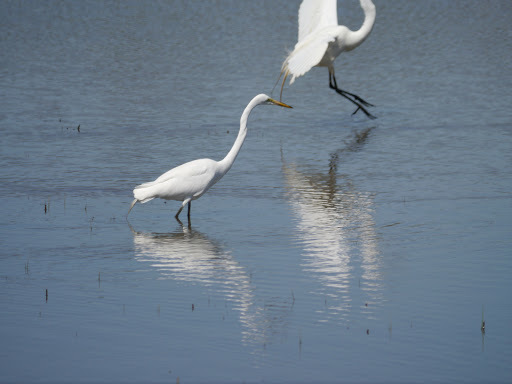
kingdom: Animalia
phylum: Chordata
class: Aves
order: Pelecaniformes
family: Ardeidae
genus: Ardea
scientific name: Ardea alba
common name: Great egret
